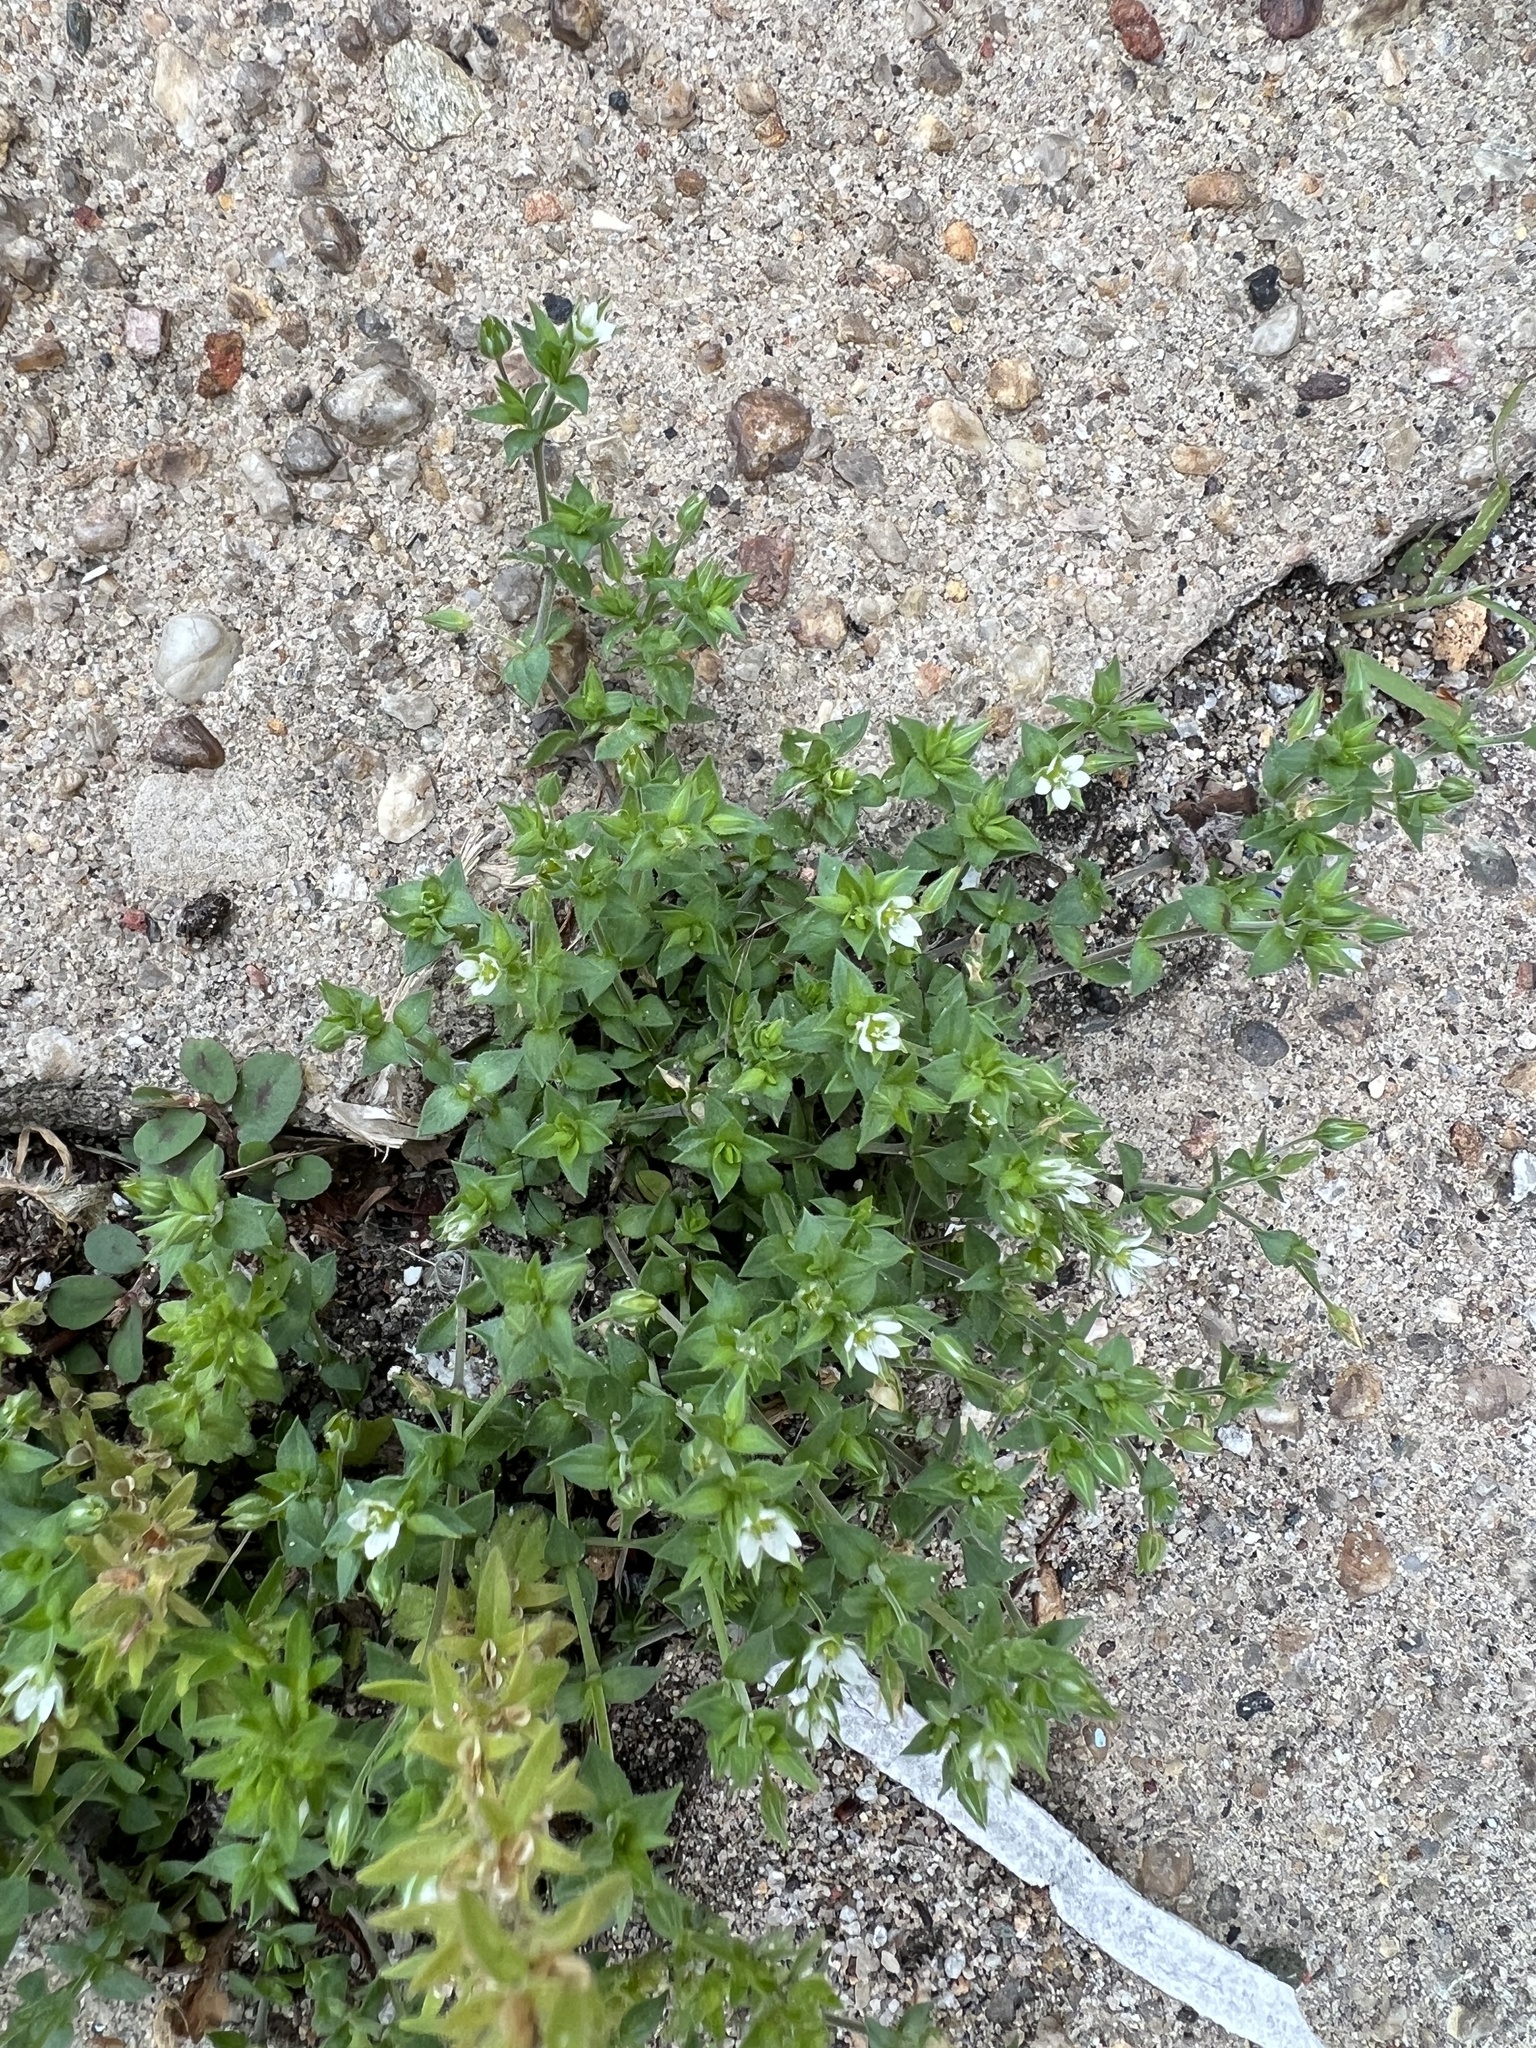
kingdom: Plantae
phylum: Tracheophyta
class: Magnoliopsida
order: Caryophyllales
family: Caryophyllaceae
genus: Arenaria
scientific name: Arenaria serpyllifolia
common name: Thyme-leaved sandwort
